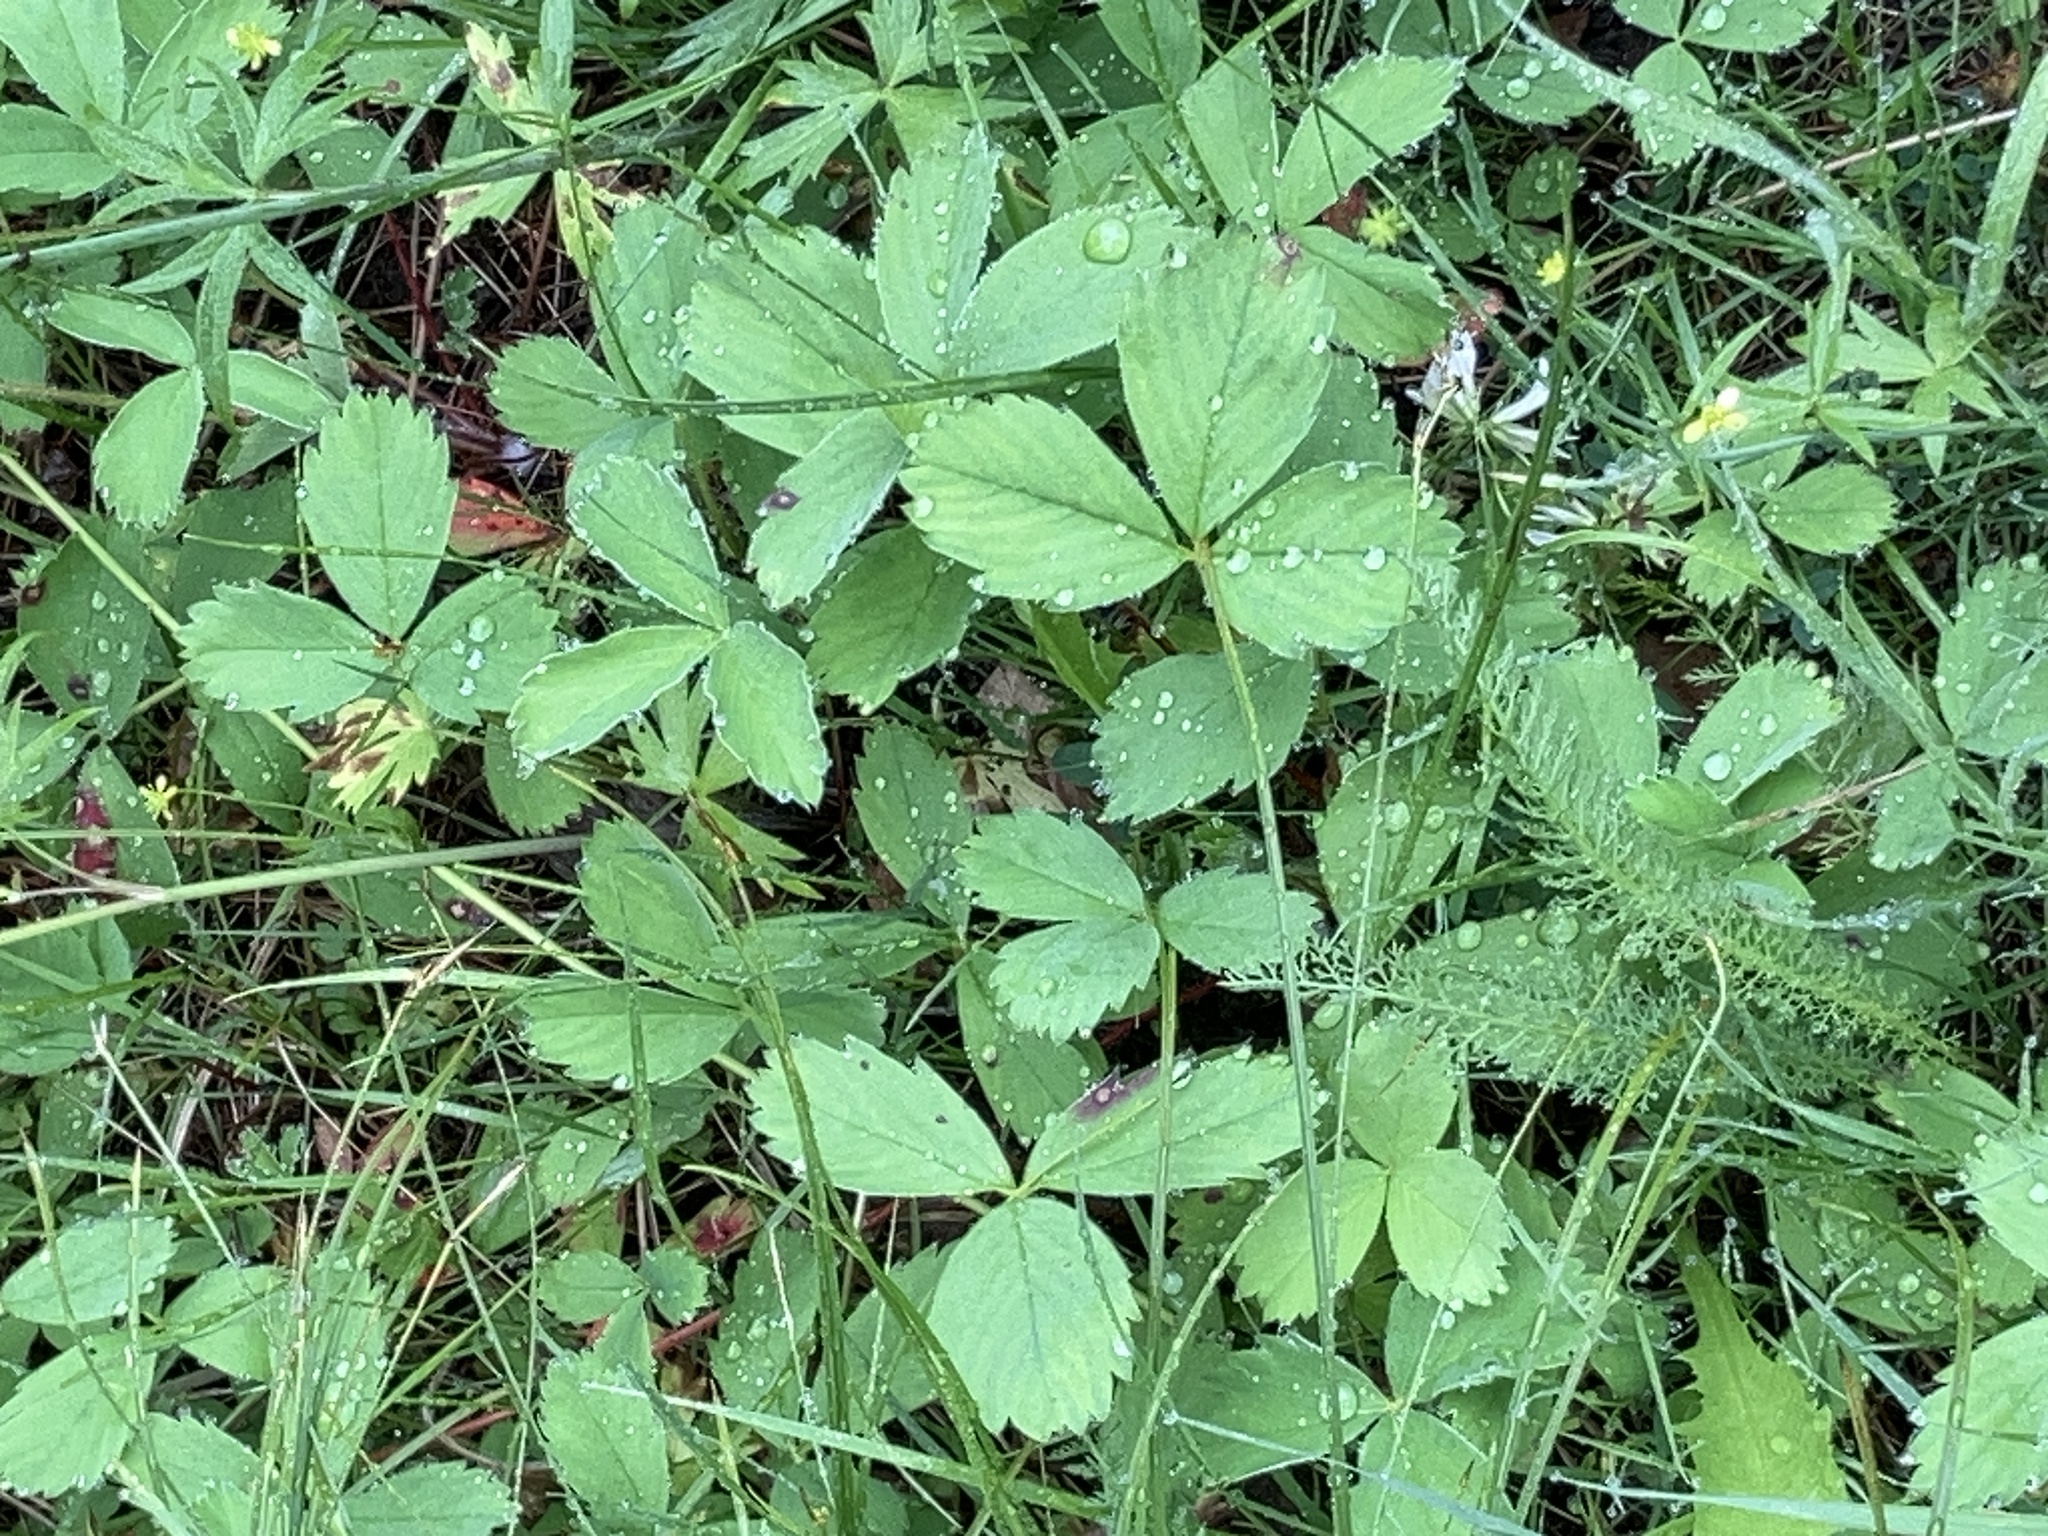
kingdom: Plantae
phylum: Tracheophyta
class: Magnoliopsida
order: Rosales
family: Rosaceae
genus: Fragaria
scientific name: Fragaria virginiana
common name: Thickleaved wild strawberry
